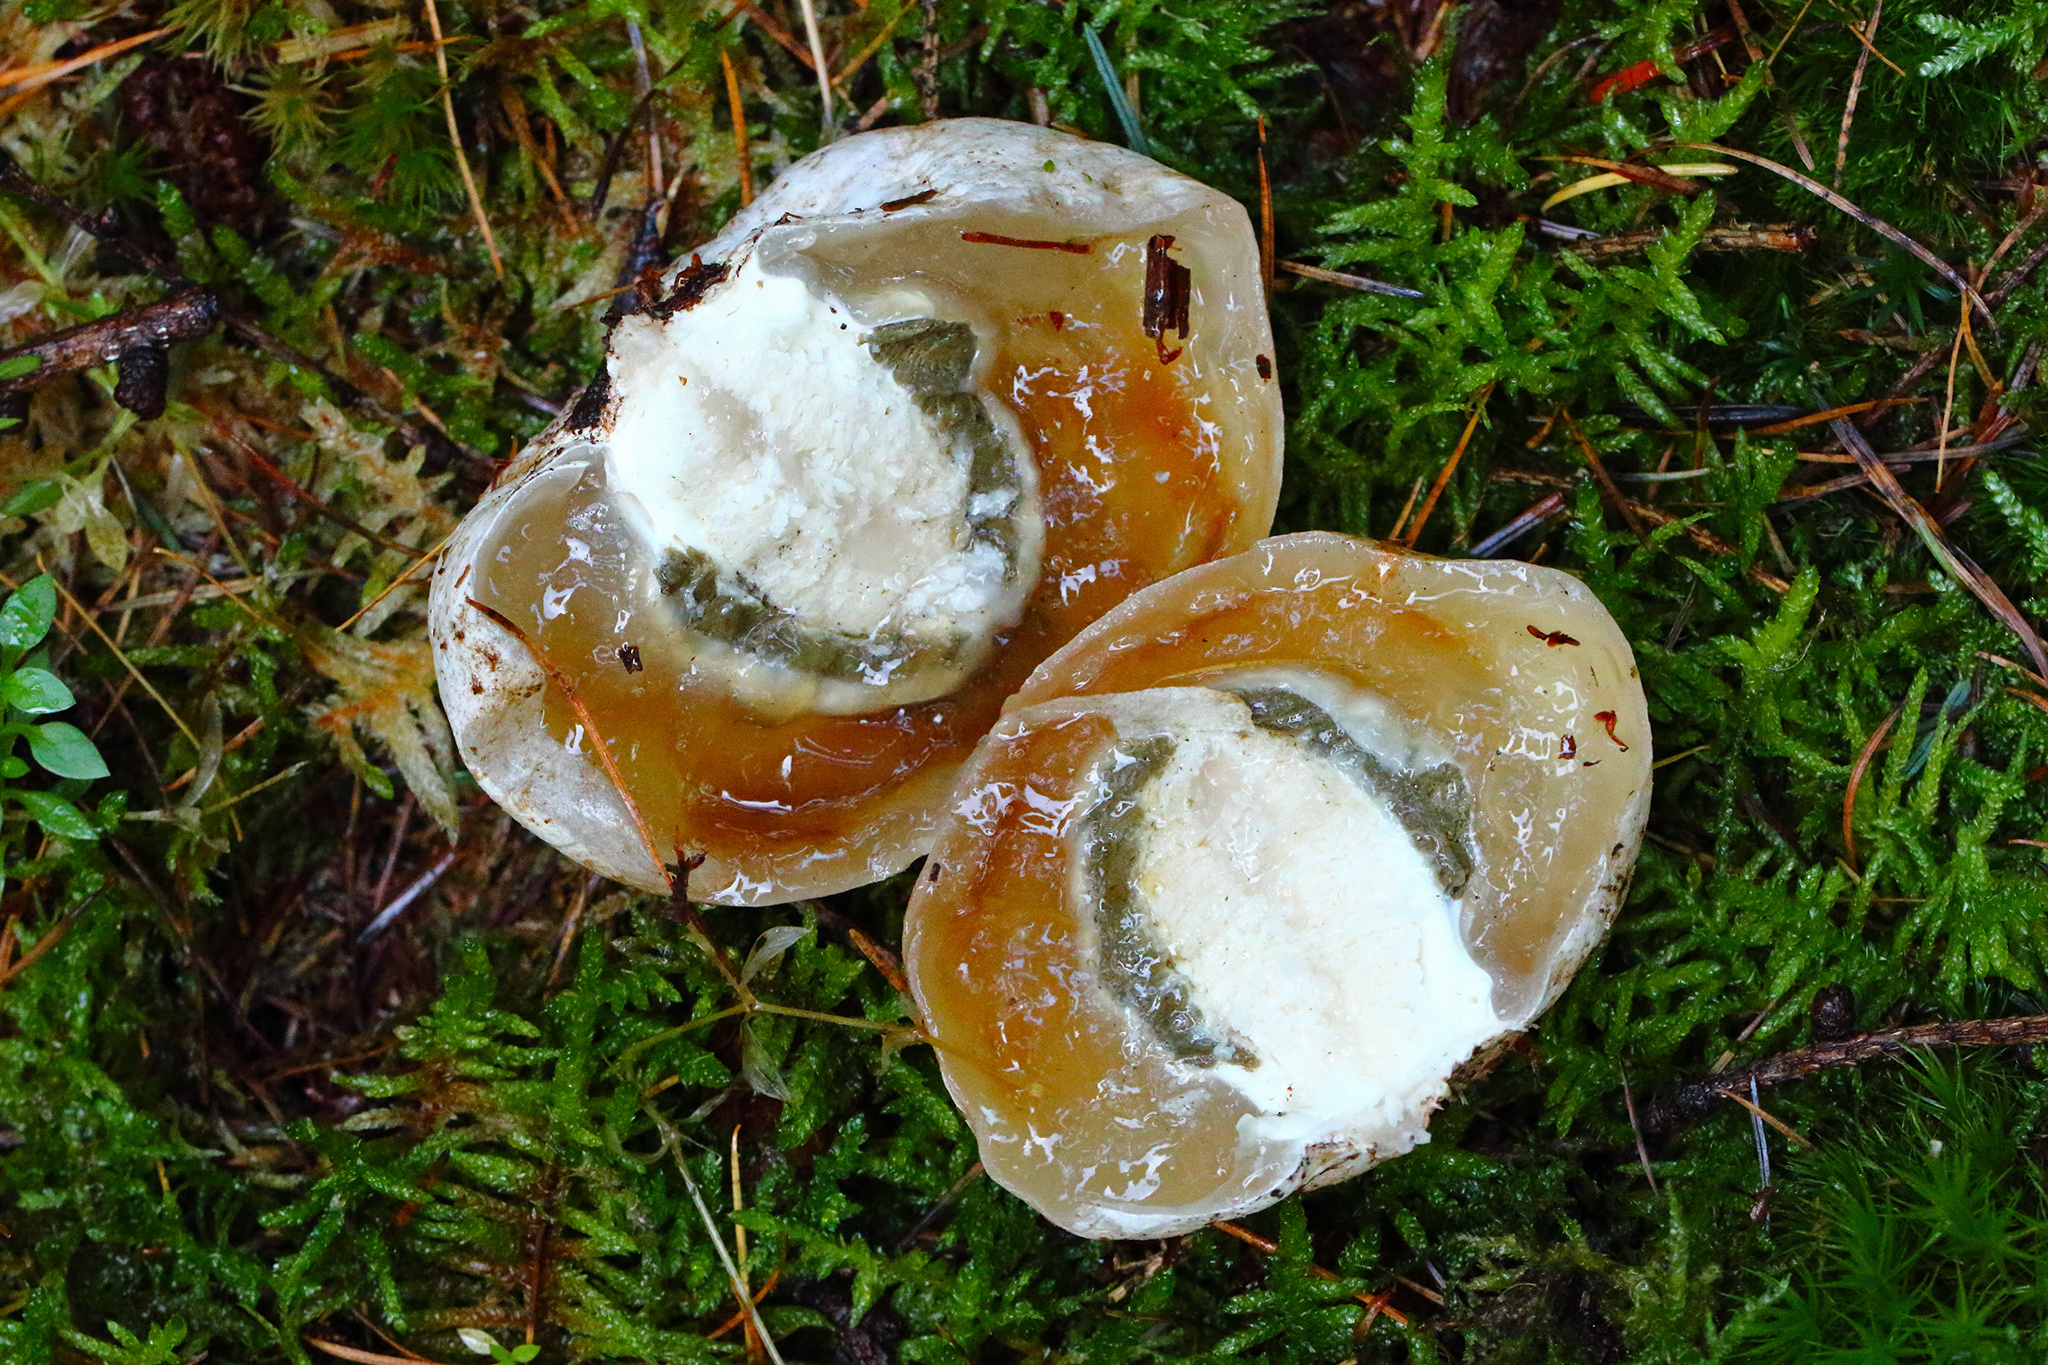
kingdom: Fungi
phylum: Basidiomycota
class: Agaricomycetes
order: Phallales
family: Phallaceae
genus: Phallus
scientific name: Phallus impudicus
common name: Common stinkhorn
